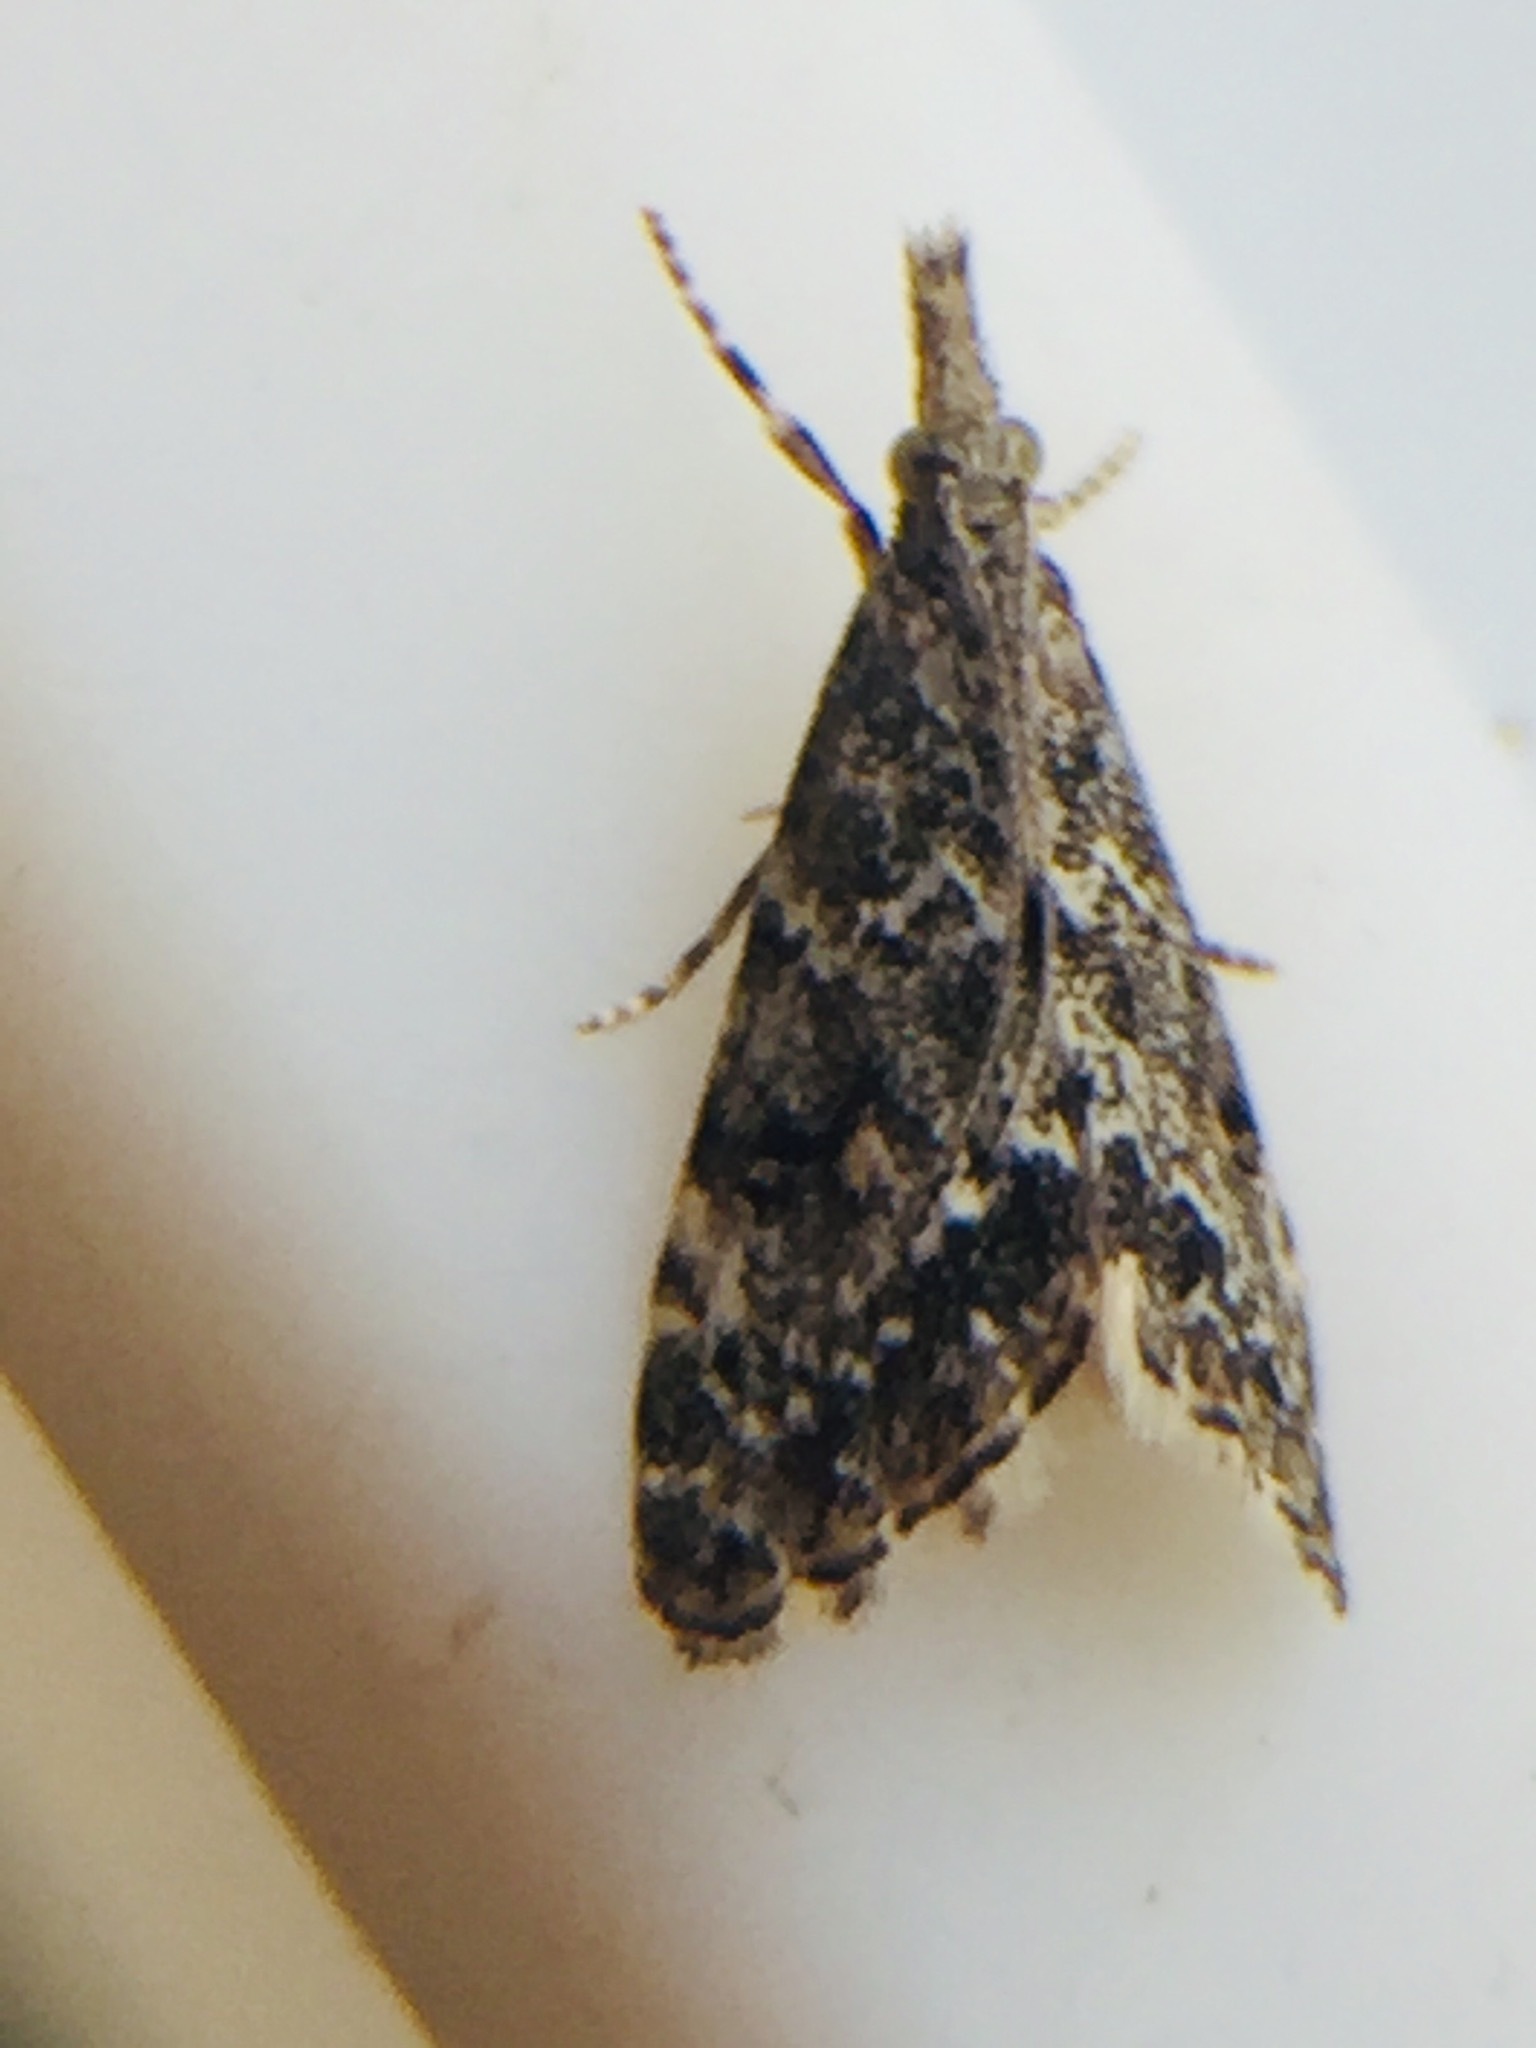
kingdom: Animalia
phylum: Arthropoda
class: Insecta
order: Lepidoptera
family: Crambidae
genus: Glaucocharis
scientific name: Glaucocharis elaina
